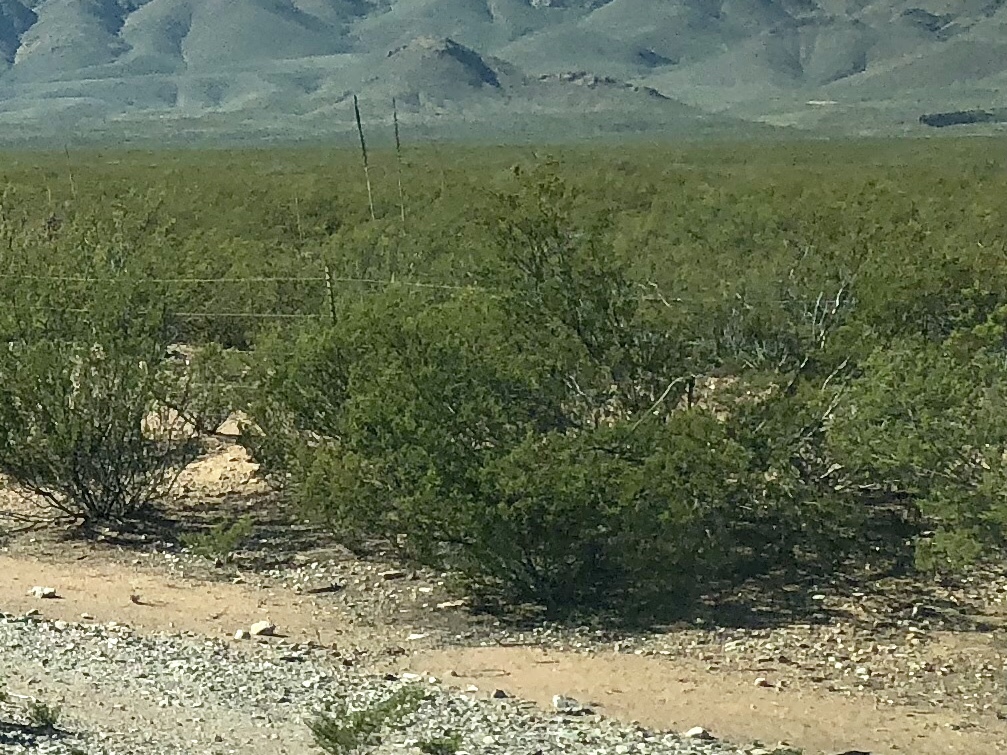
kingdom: Plantae
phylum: Tracheophyta
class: Magnoliopsida
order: Zygophyllales
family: Zygophyllaceae
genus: Larrea
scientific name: Larrea tridentata
